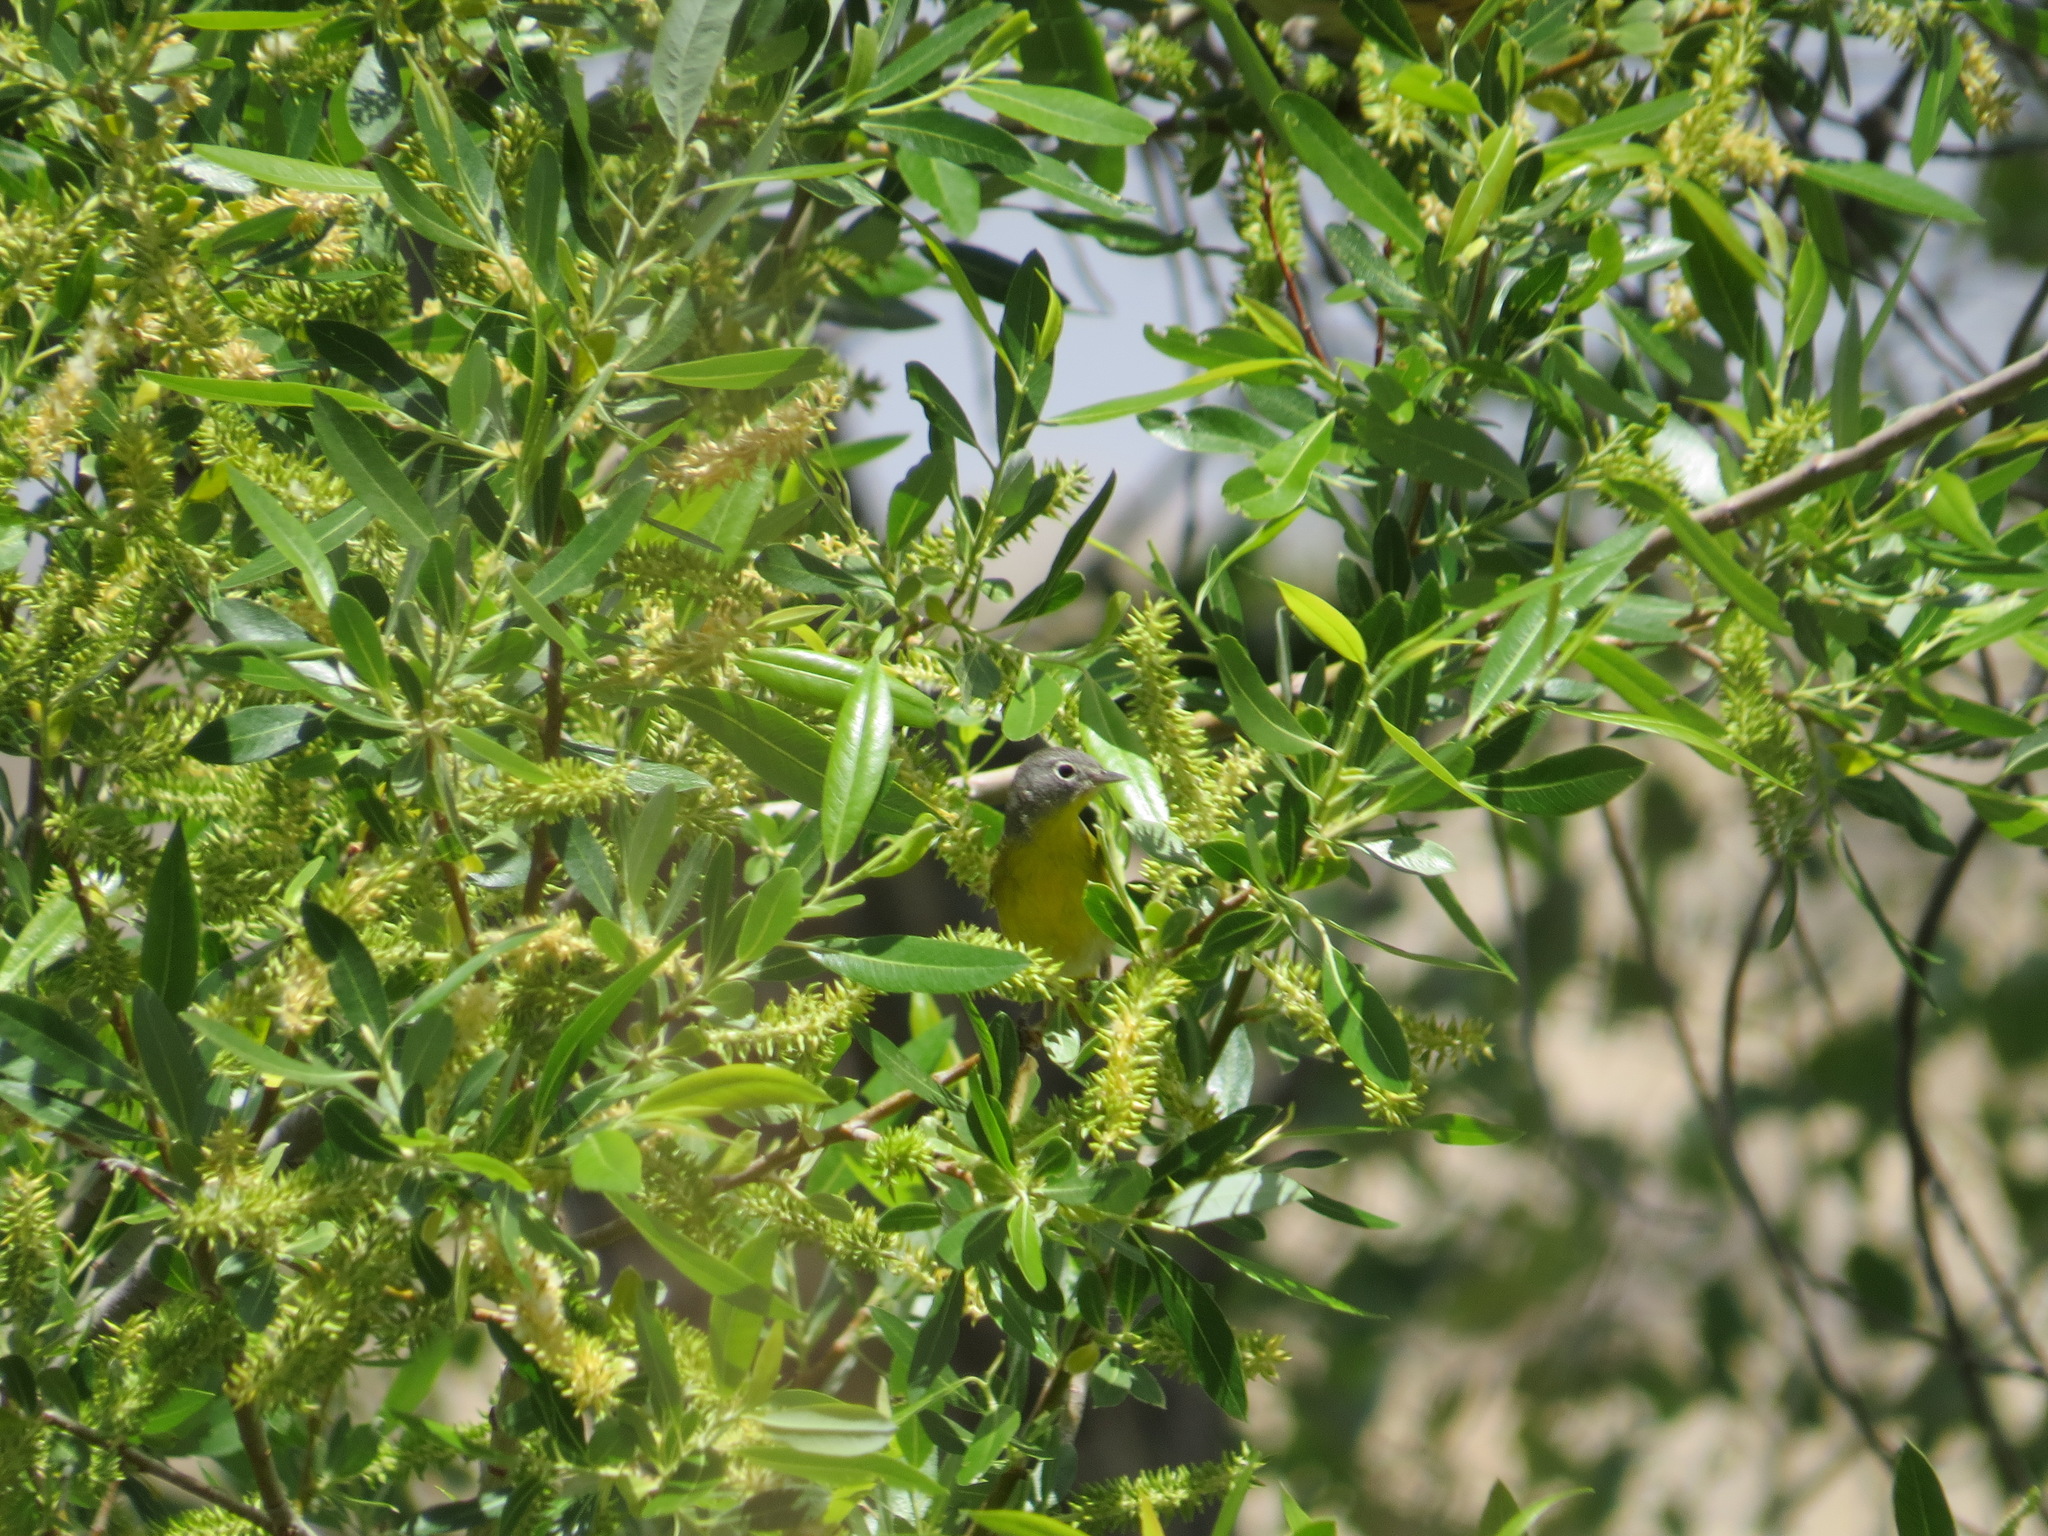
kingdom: Animalia
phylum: Chordata
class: Aves
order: Passeriformes
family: Parulidae
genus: Leiothlypis
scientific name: Leiothlypis ruficapilla
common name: Nashville warbler
